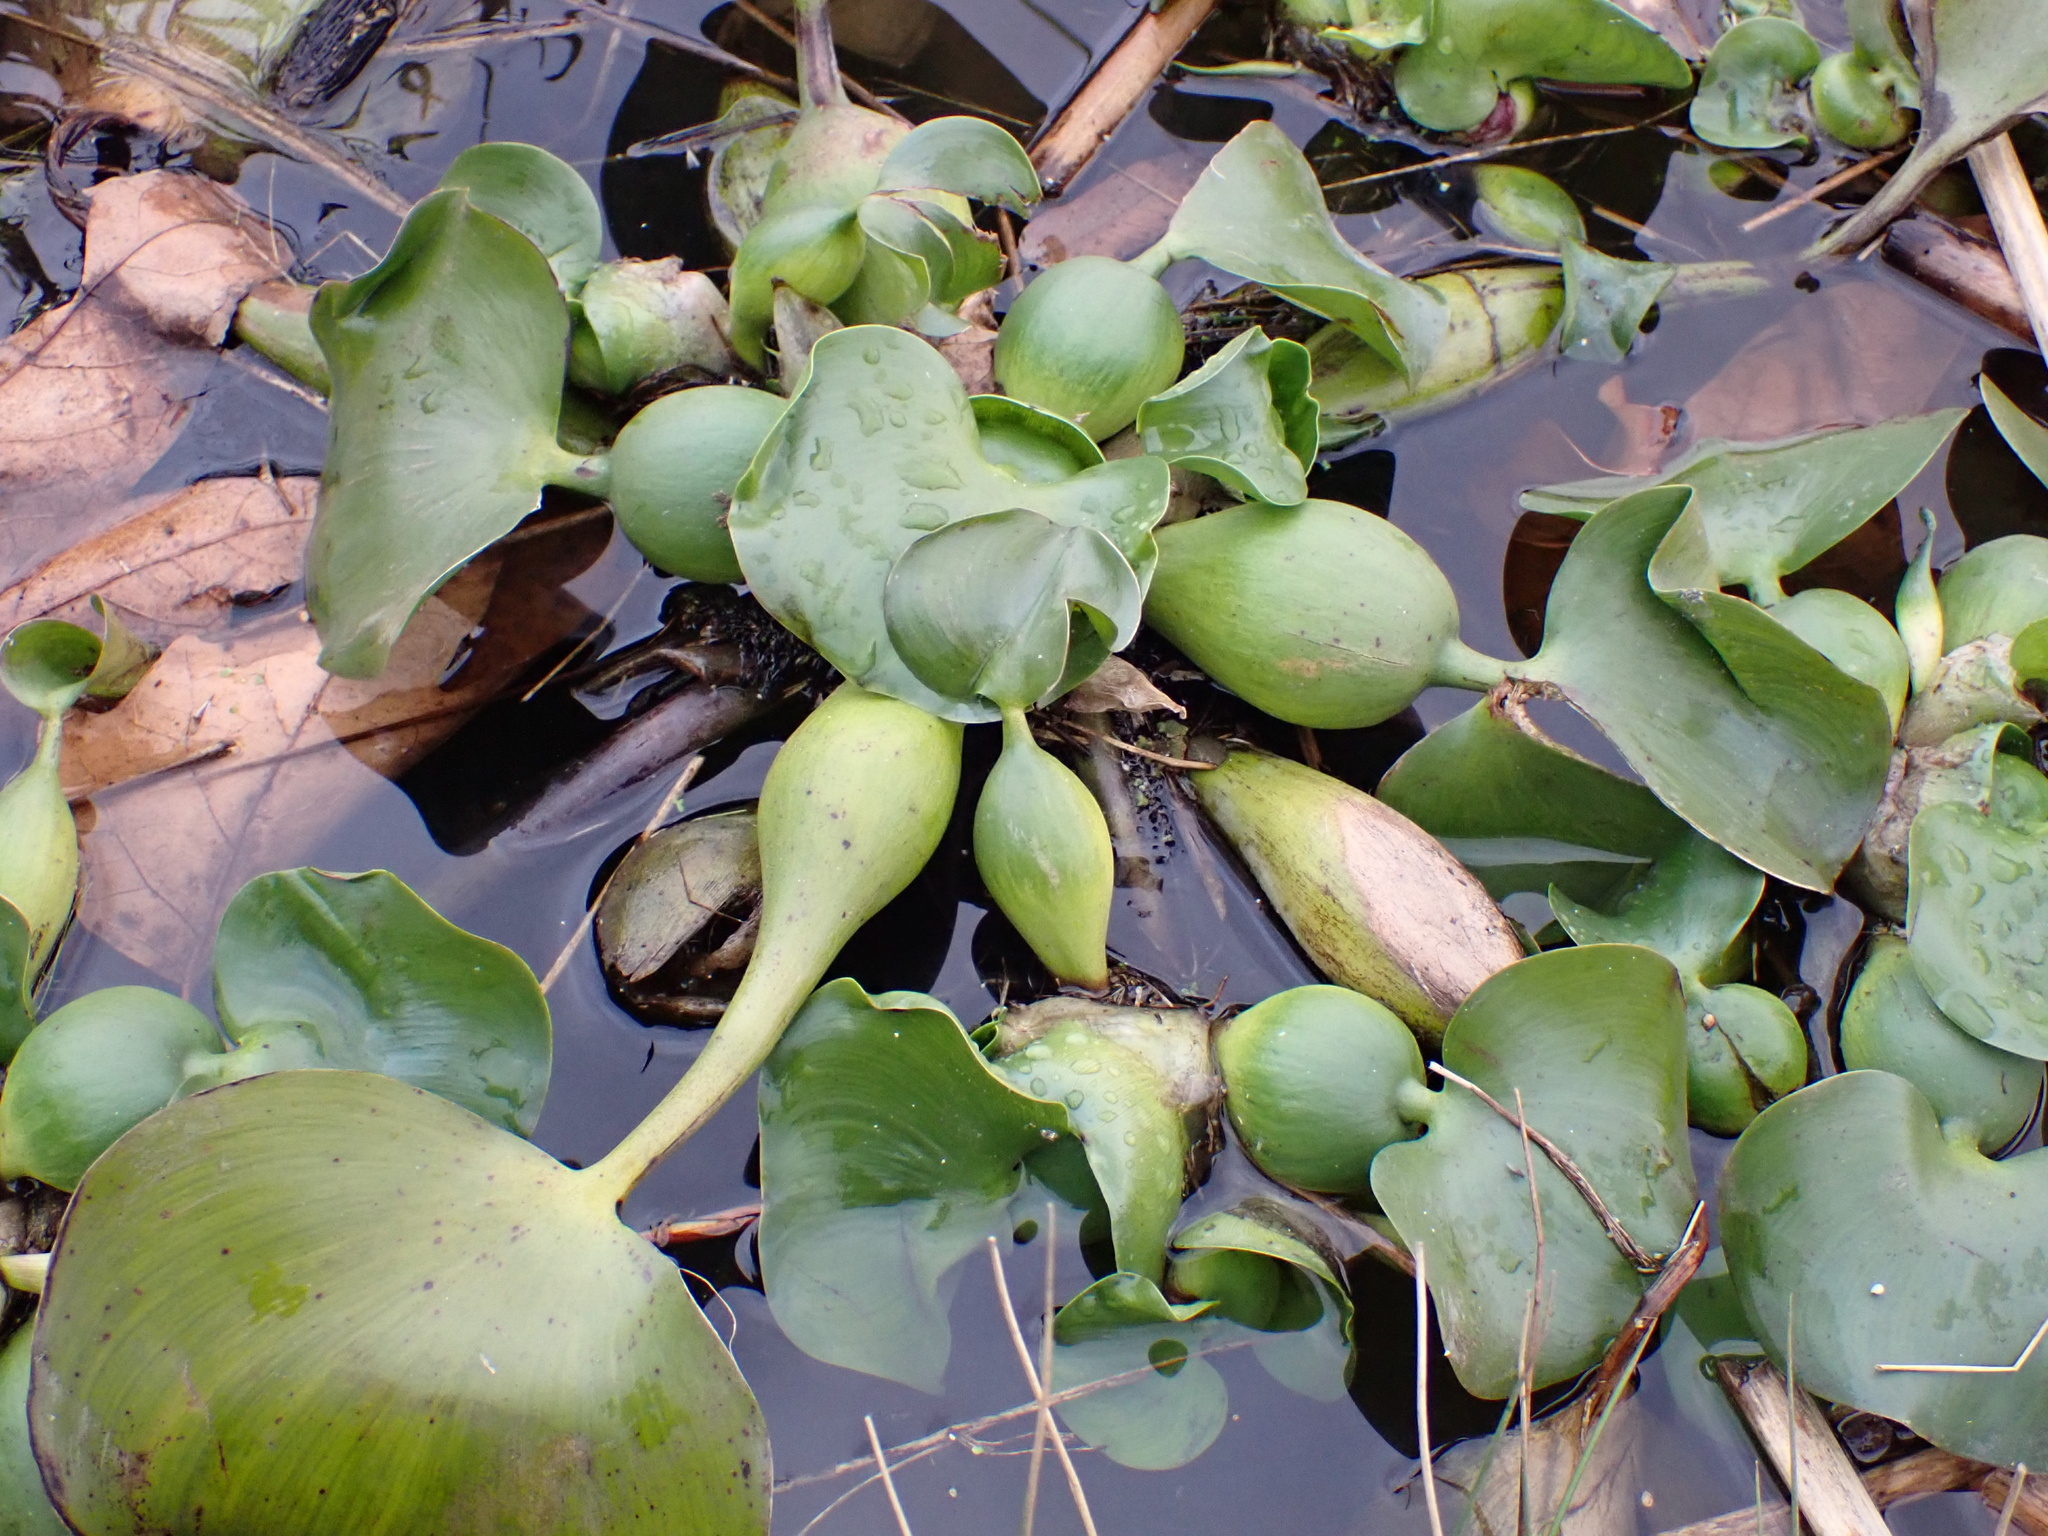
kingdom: Plantae
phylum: Tracheophyta
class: Liliopsida
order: Commelinales
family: Pontederiaceae
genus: Pontederia
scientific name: Pontederia crassipes
